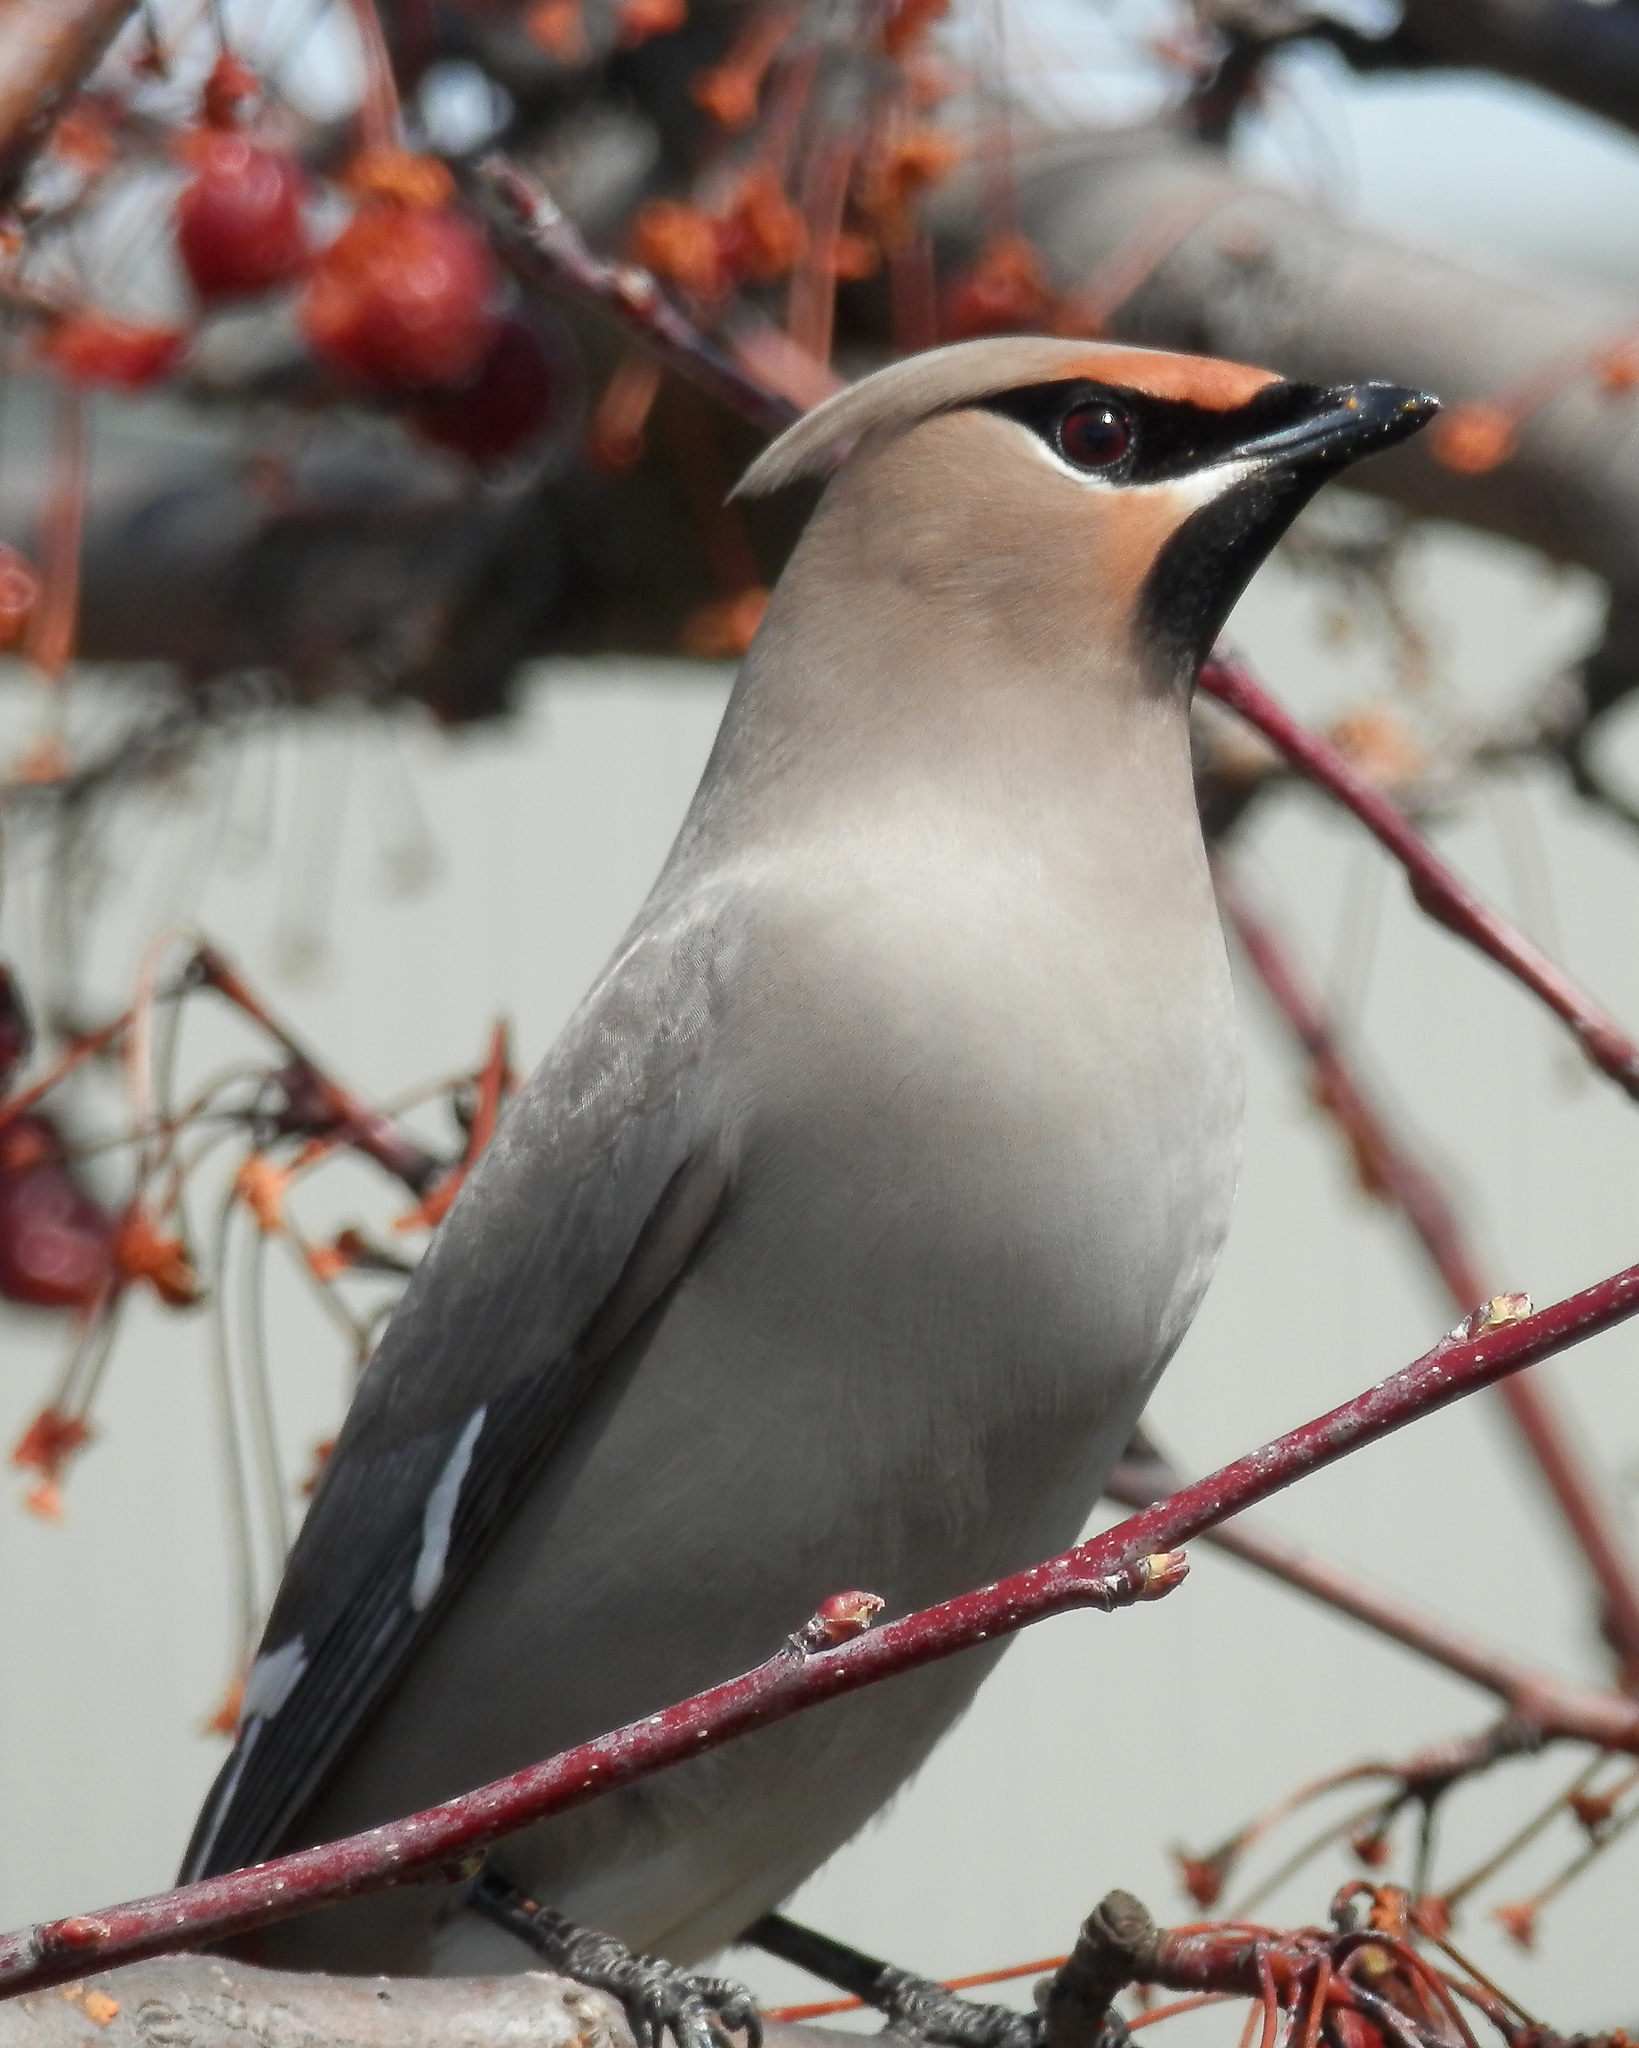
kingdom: Animalia
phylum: Chordata
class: Aves
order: Passeriformes
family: Bombycillidae
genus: Bombycilla
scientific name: Bombycilla garrulus
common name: Bohemian waxwing
